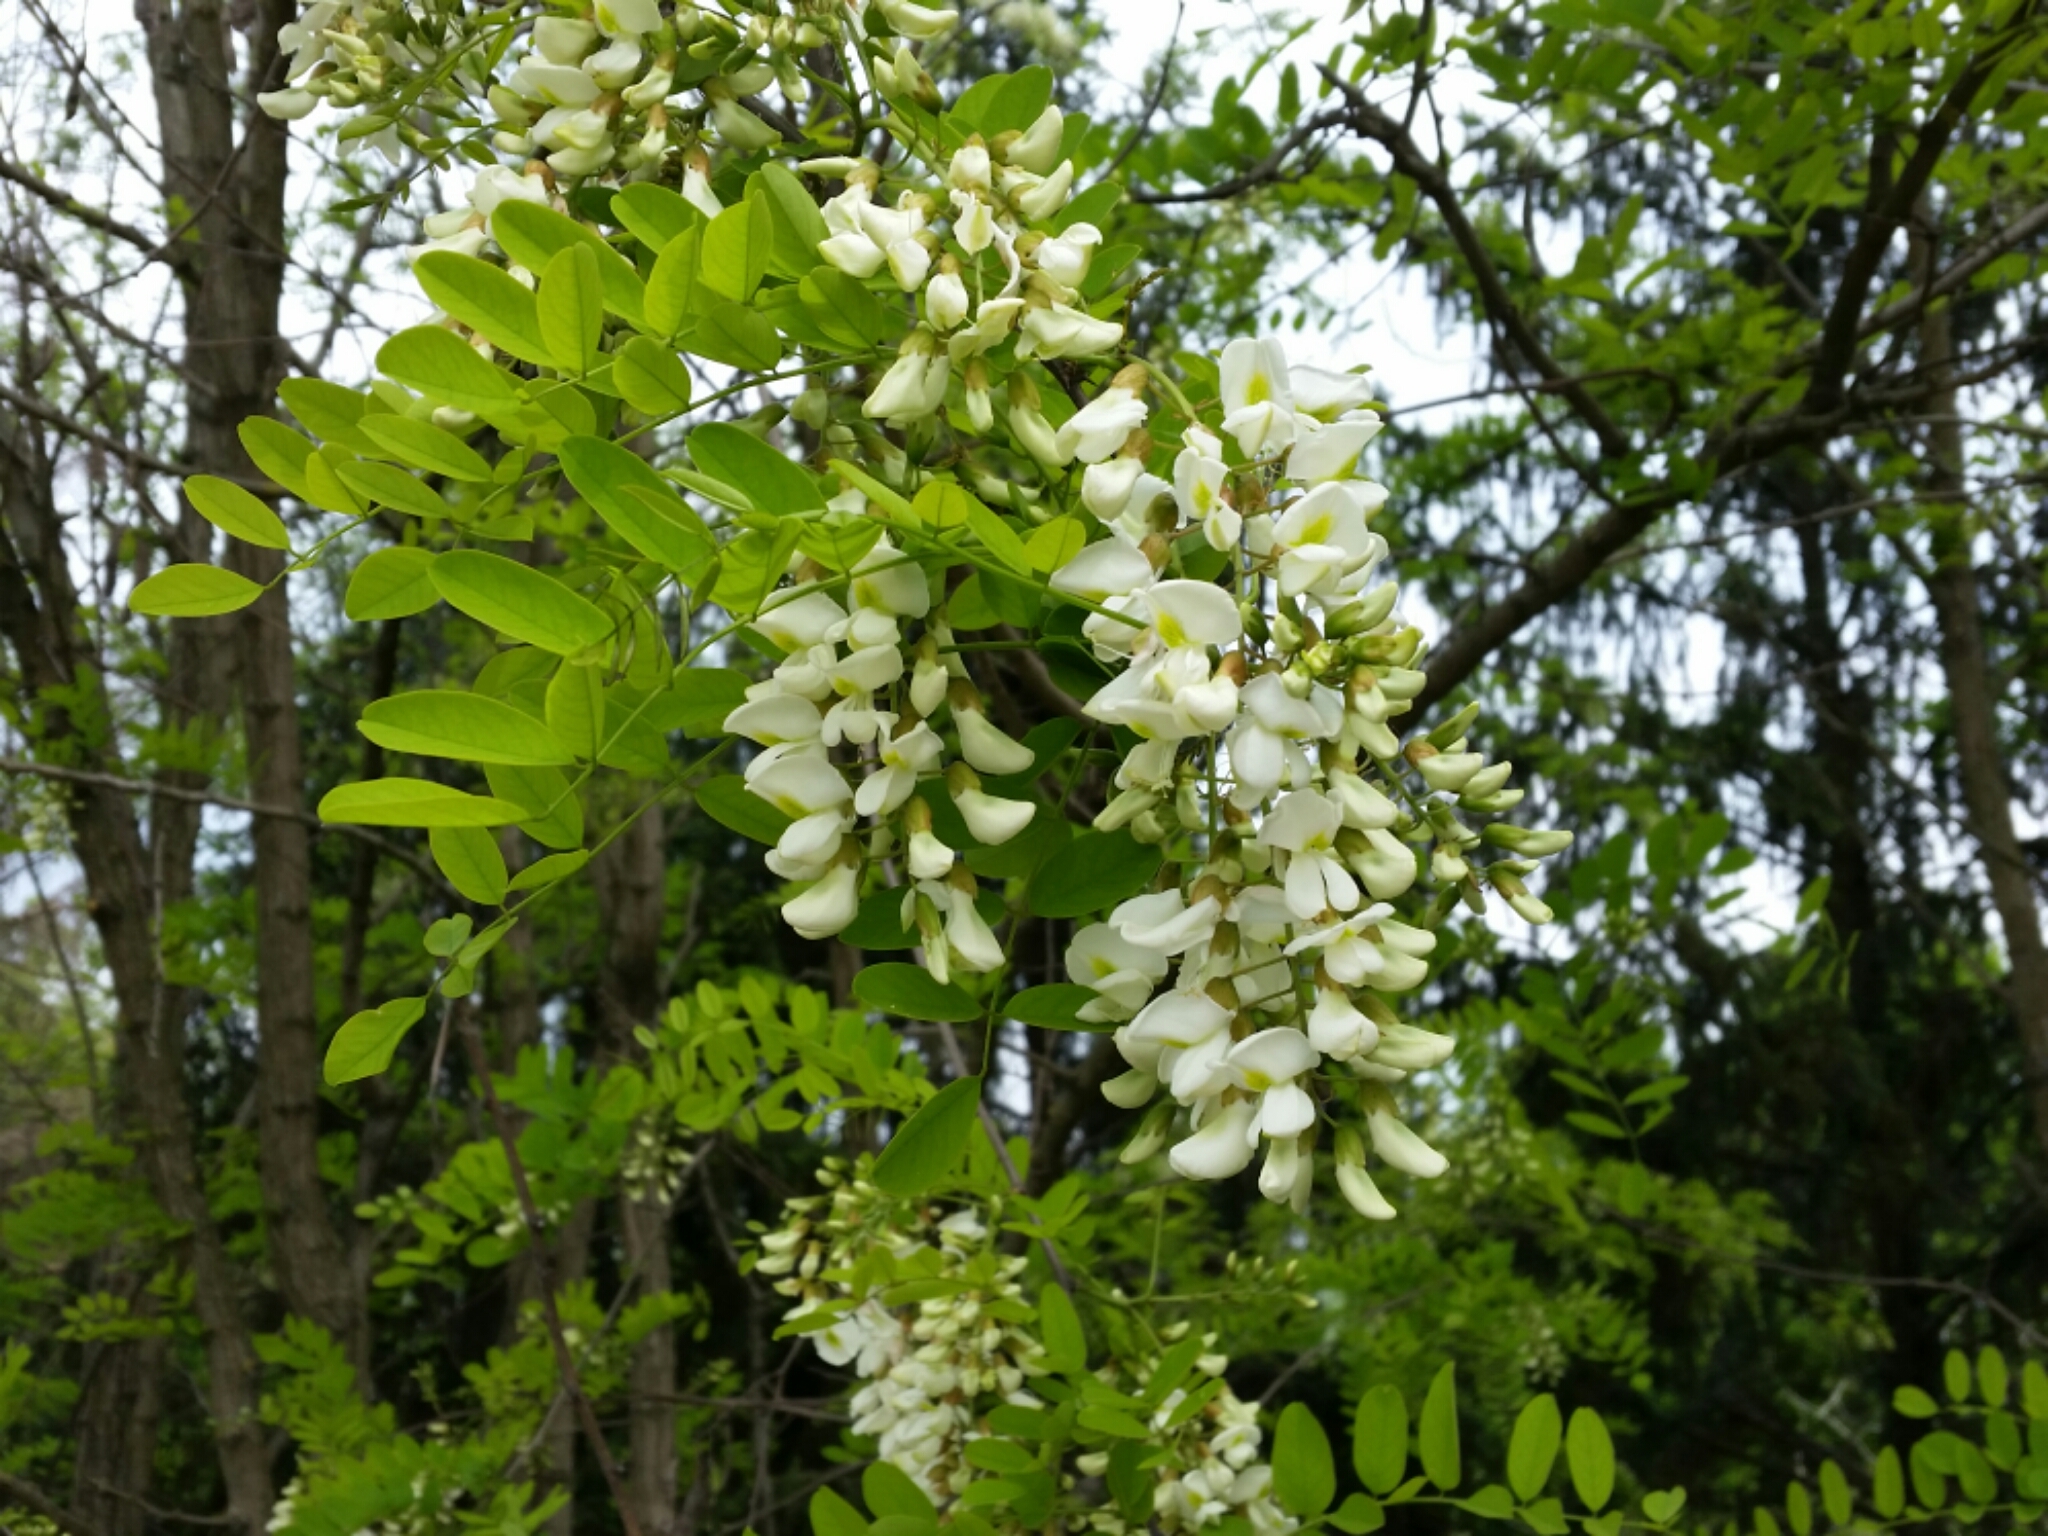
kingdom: Plantae
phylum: Tracheophyta
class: Magnoliopsida
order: Fabales
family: Fabaceae
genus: Robinia
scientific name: Robinia pseudoacacia
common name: Black locust
